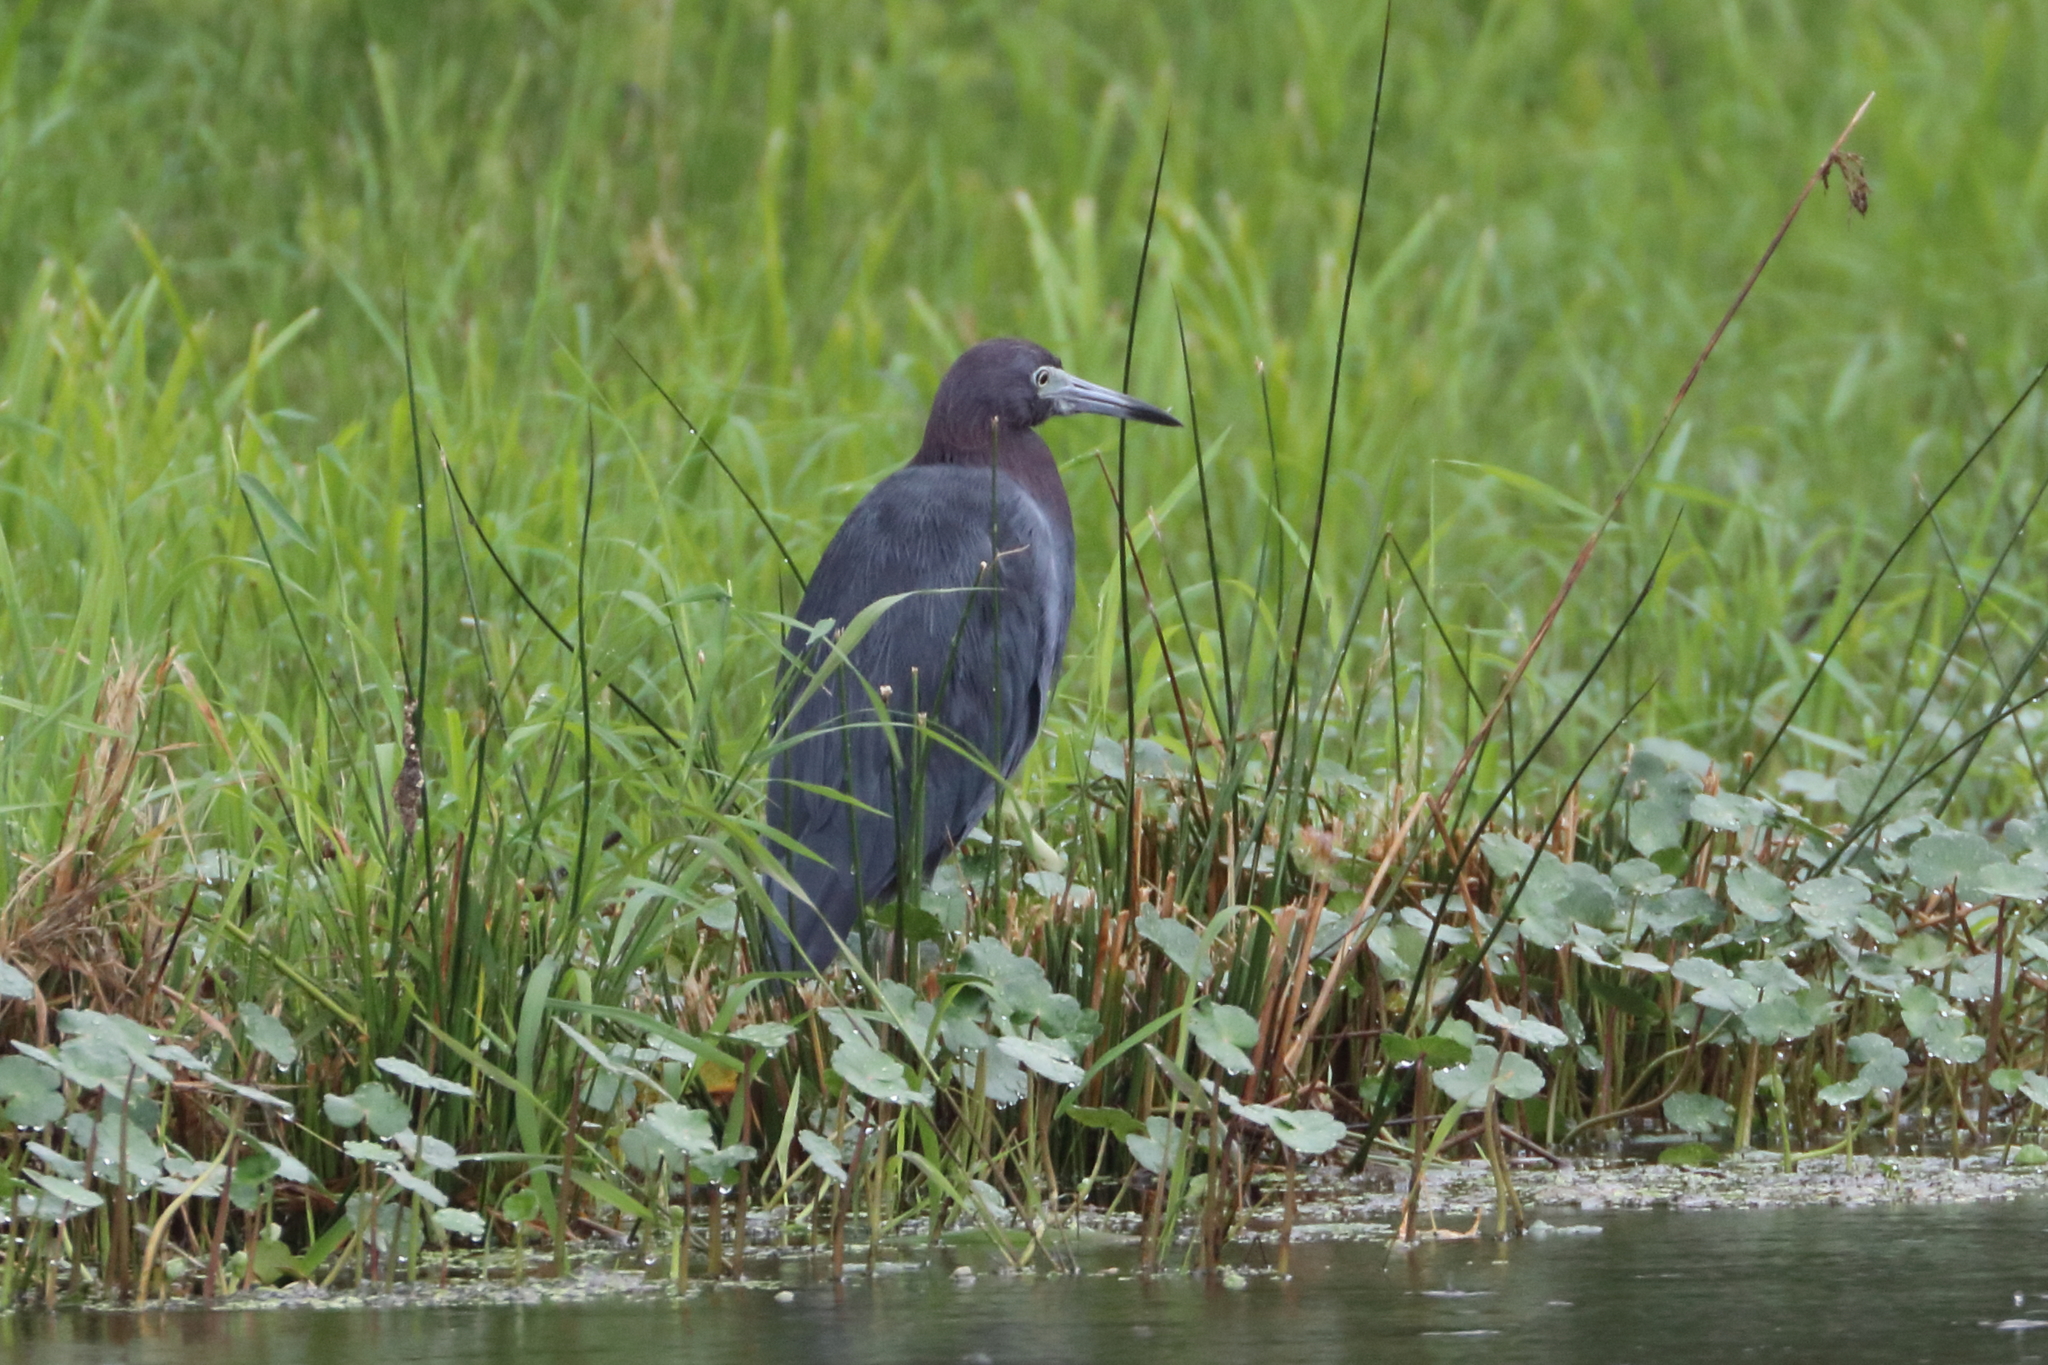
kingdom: Animalia
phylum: Chordata
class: Aves
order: Pelecaniformes
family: Ardeidae
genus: Egretta
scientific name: Egretta caerulea
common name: Little blue heron
